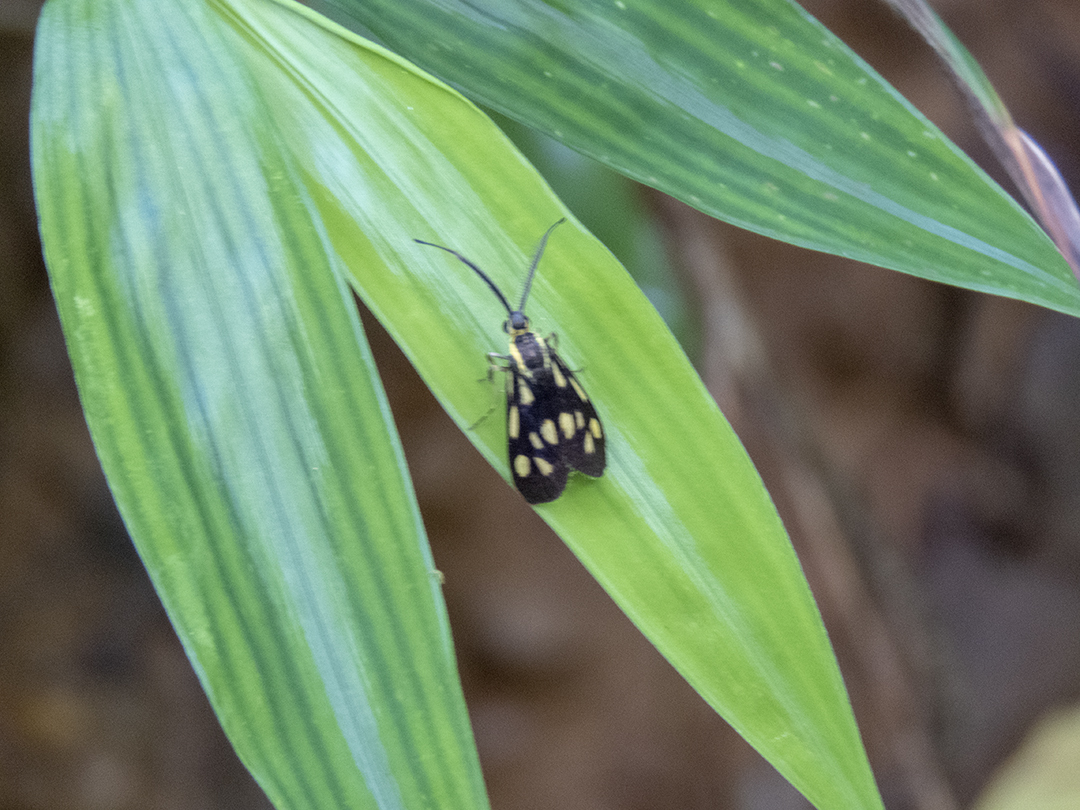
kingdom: Animalia
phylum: Arthropoda
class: Insecta
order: Lepidoptera
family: Zygaenidae
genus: Artona
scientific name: Artona walkeri
